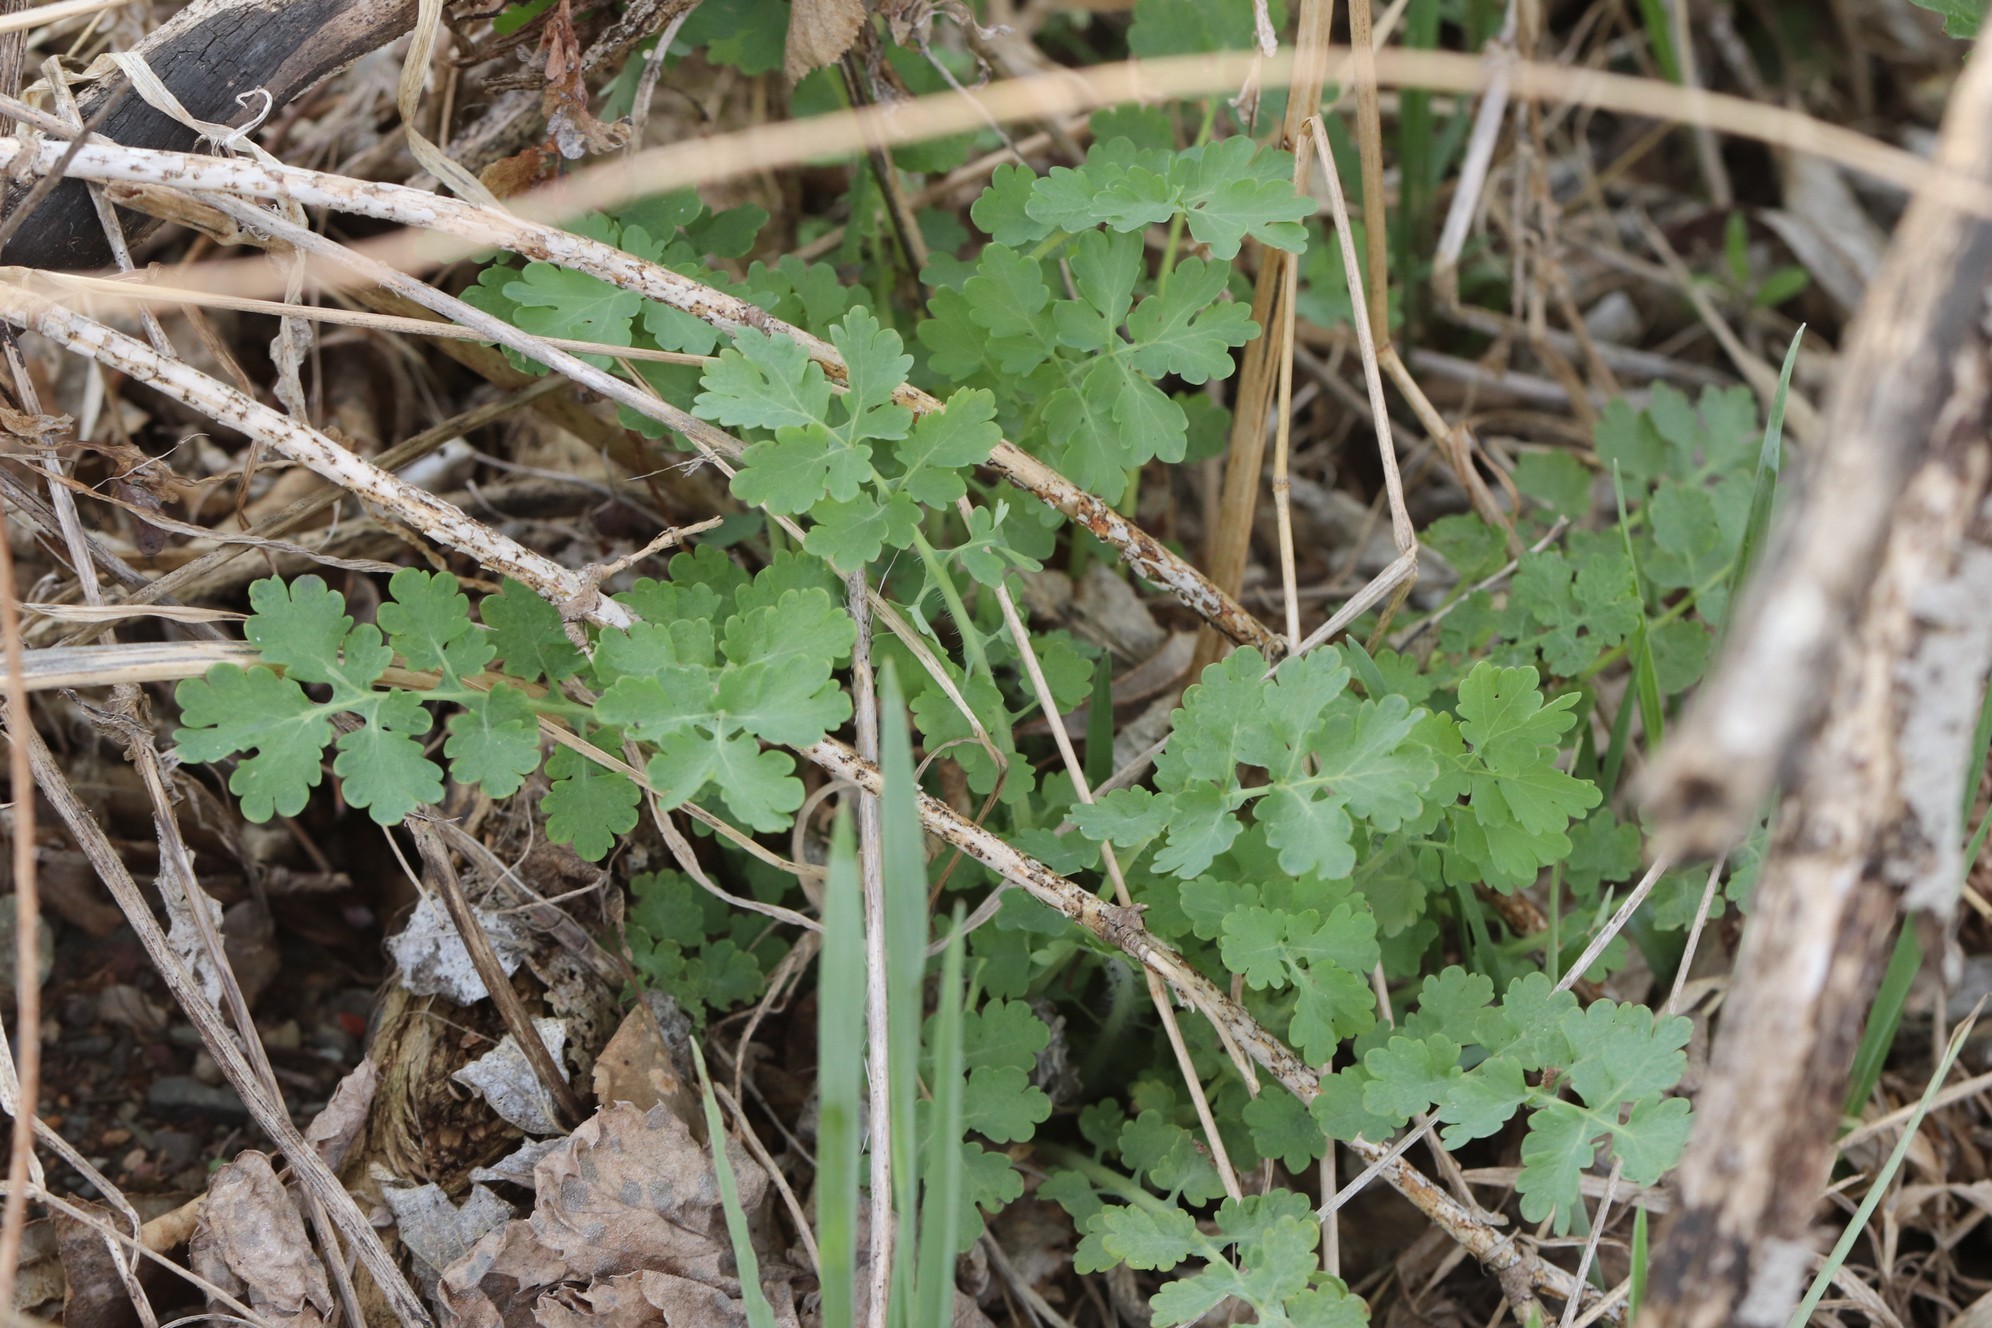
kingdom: Plantae
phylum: Tracheophyta
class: Magnoliopsida
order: Ranunculales
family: Papaveraceae
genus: Chelidonium
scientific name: Chelidonium majus
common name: Greater celandine
